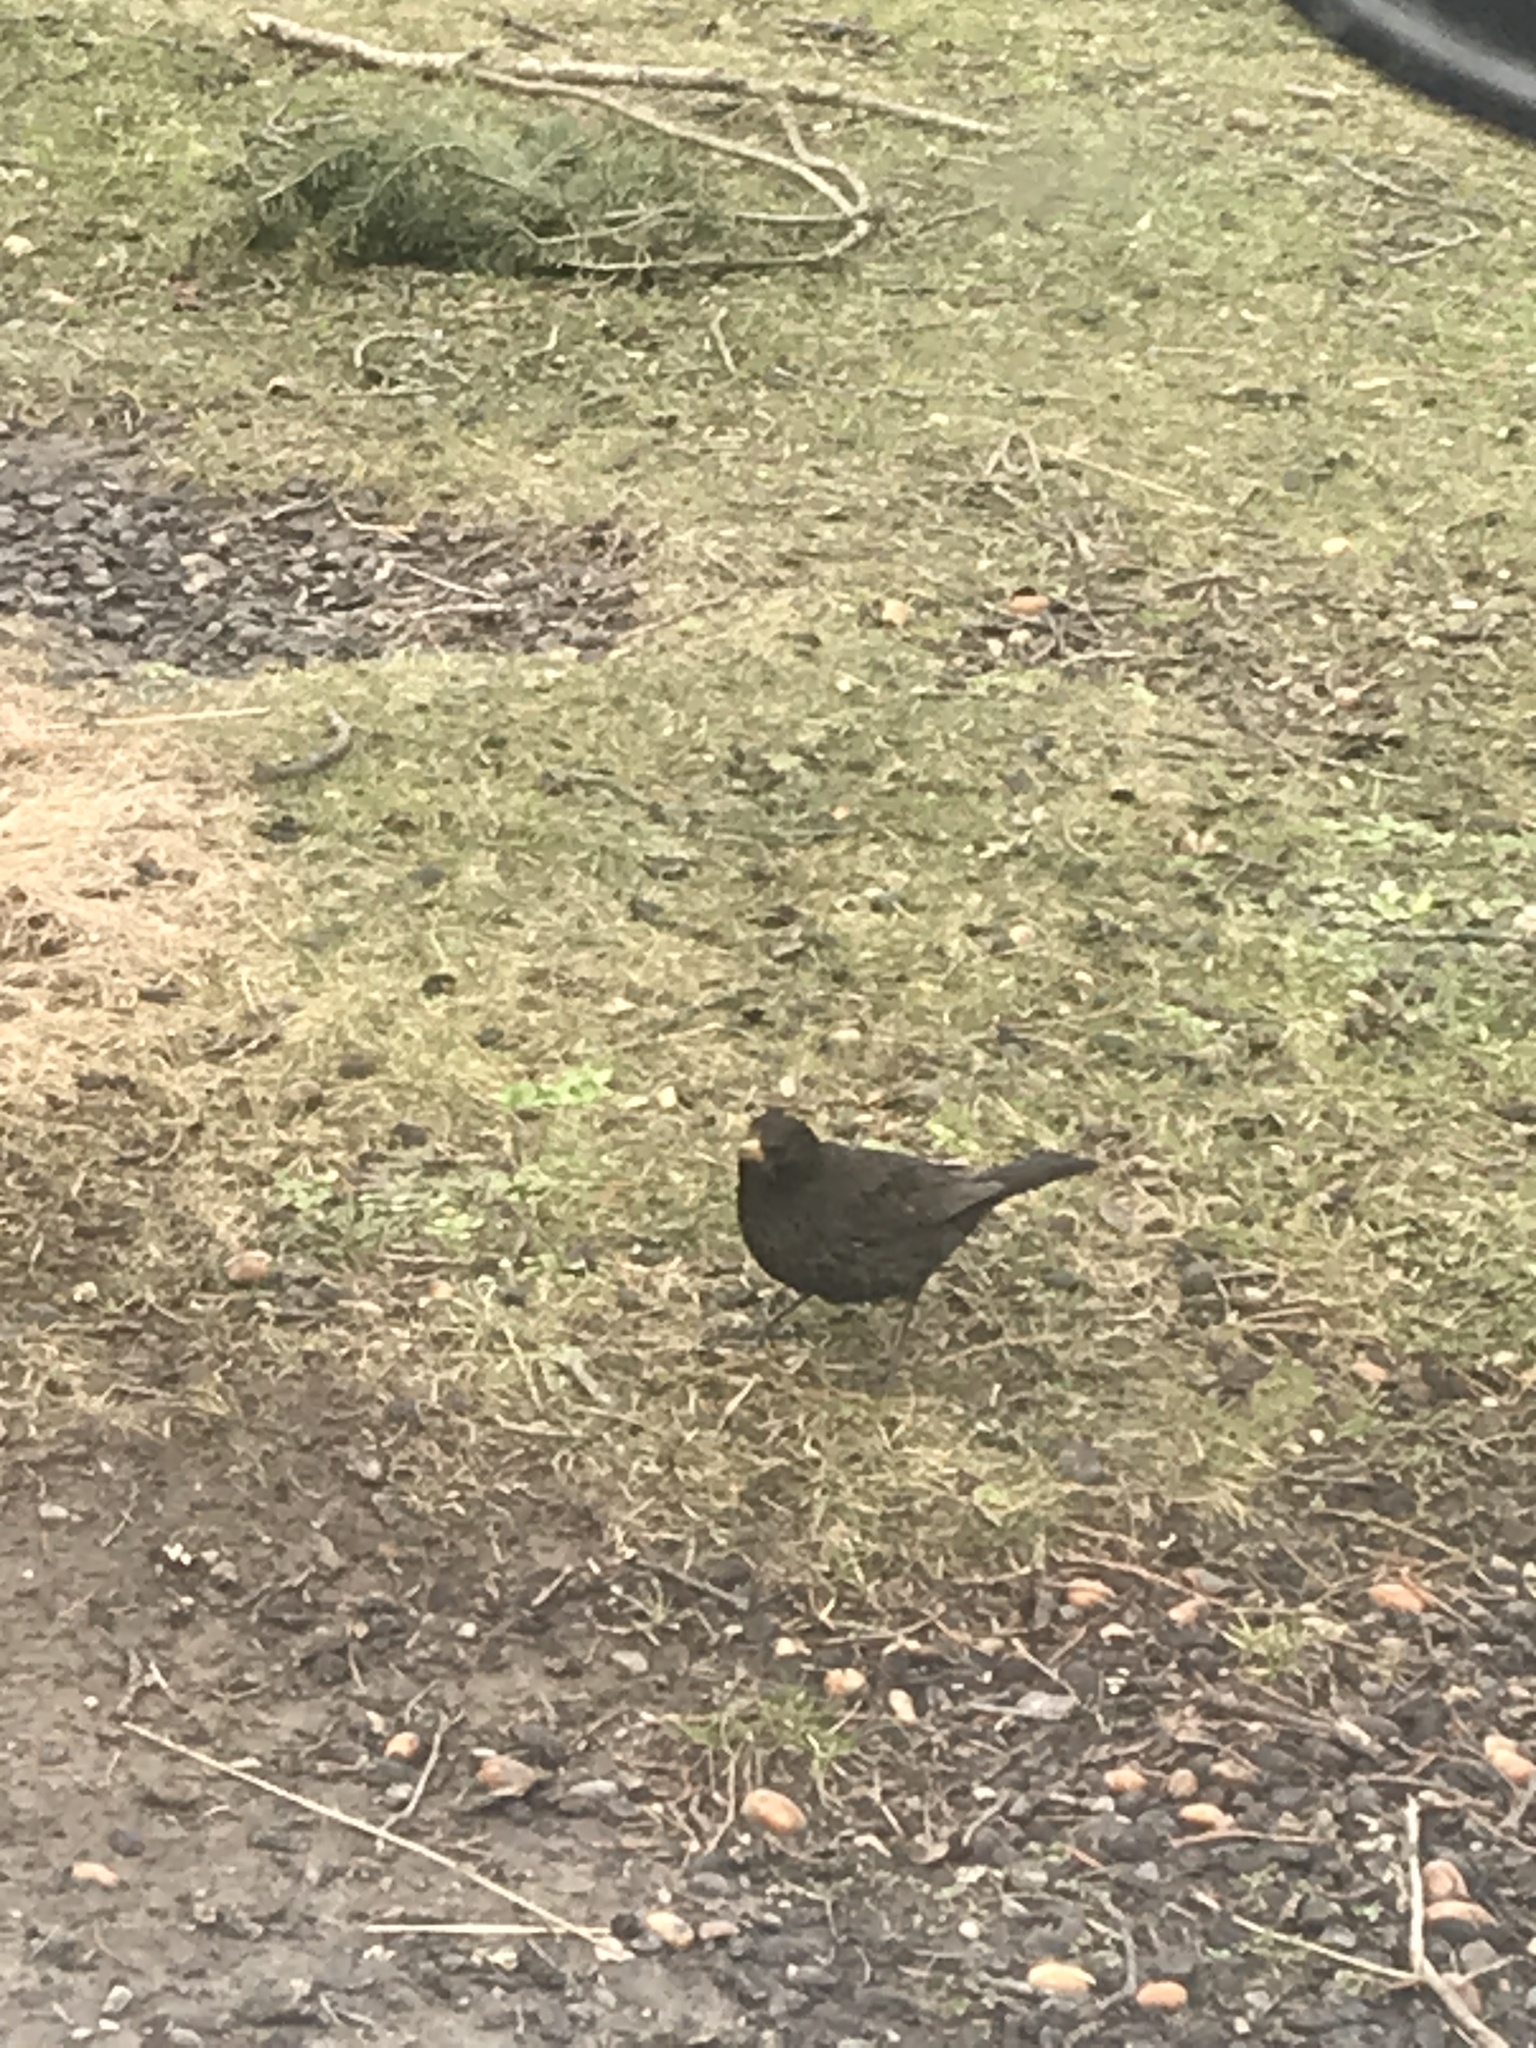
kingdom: Animalia
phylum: Chordata
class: Aves
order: Passeriformes
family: Turdidae
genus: Turdus
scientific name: Turdus merula
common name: Common blackbird
